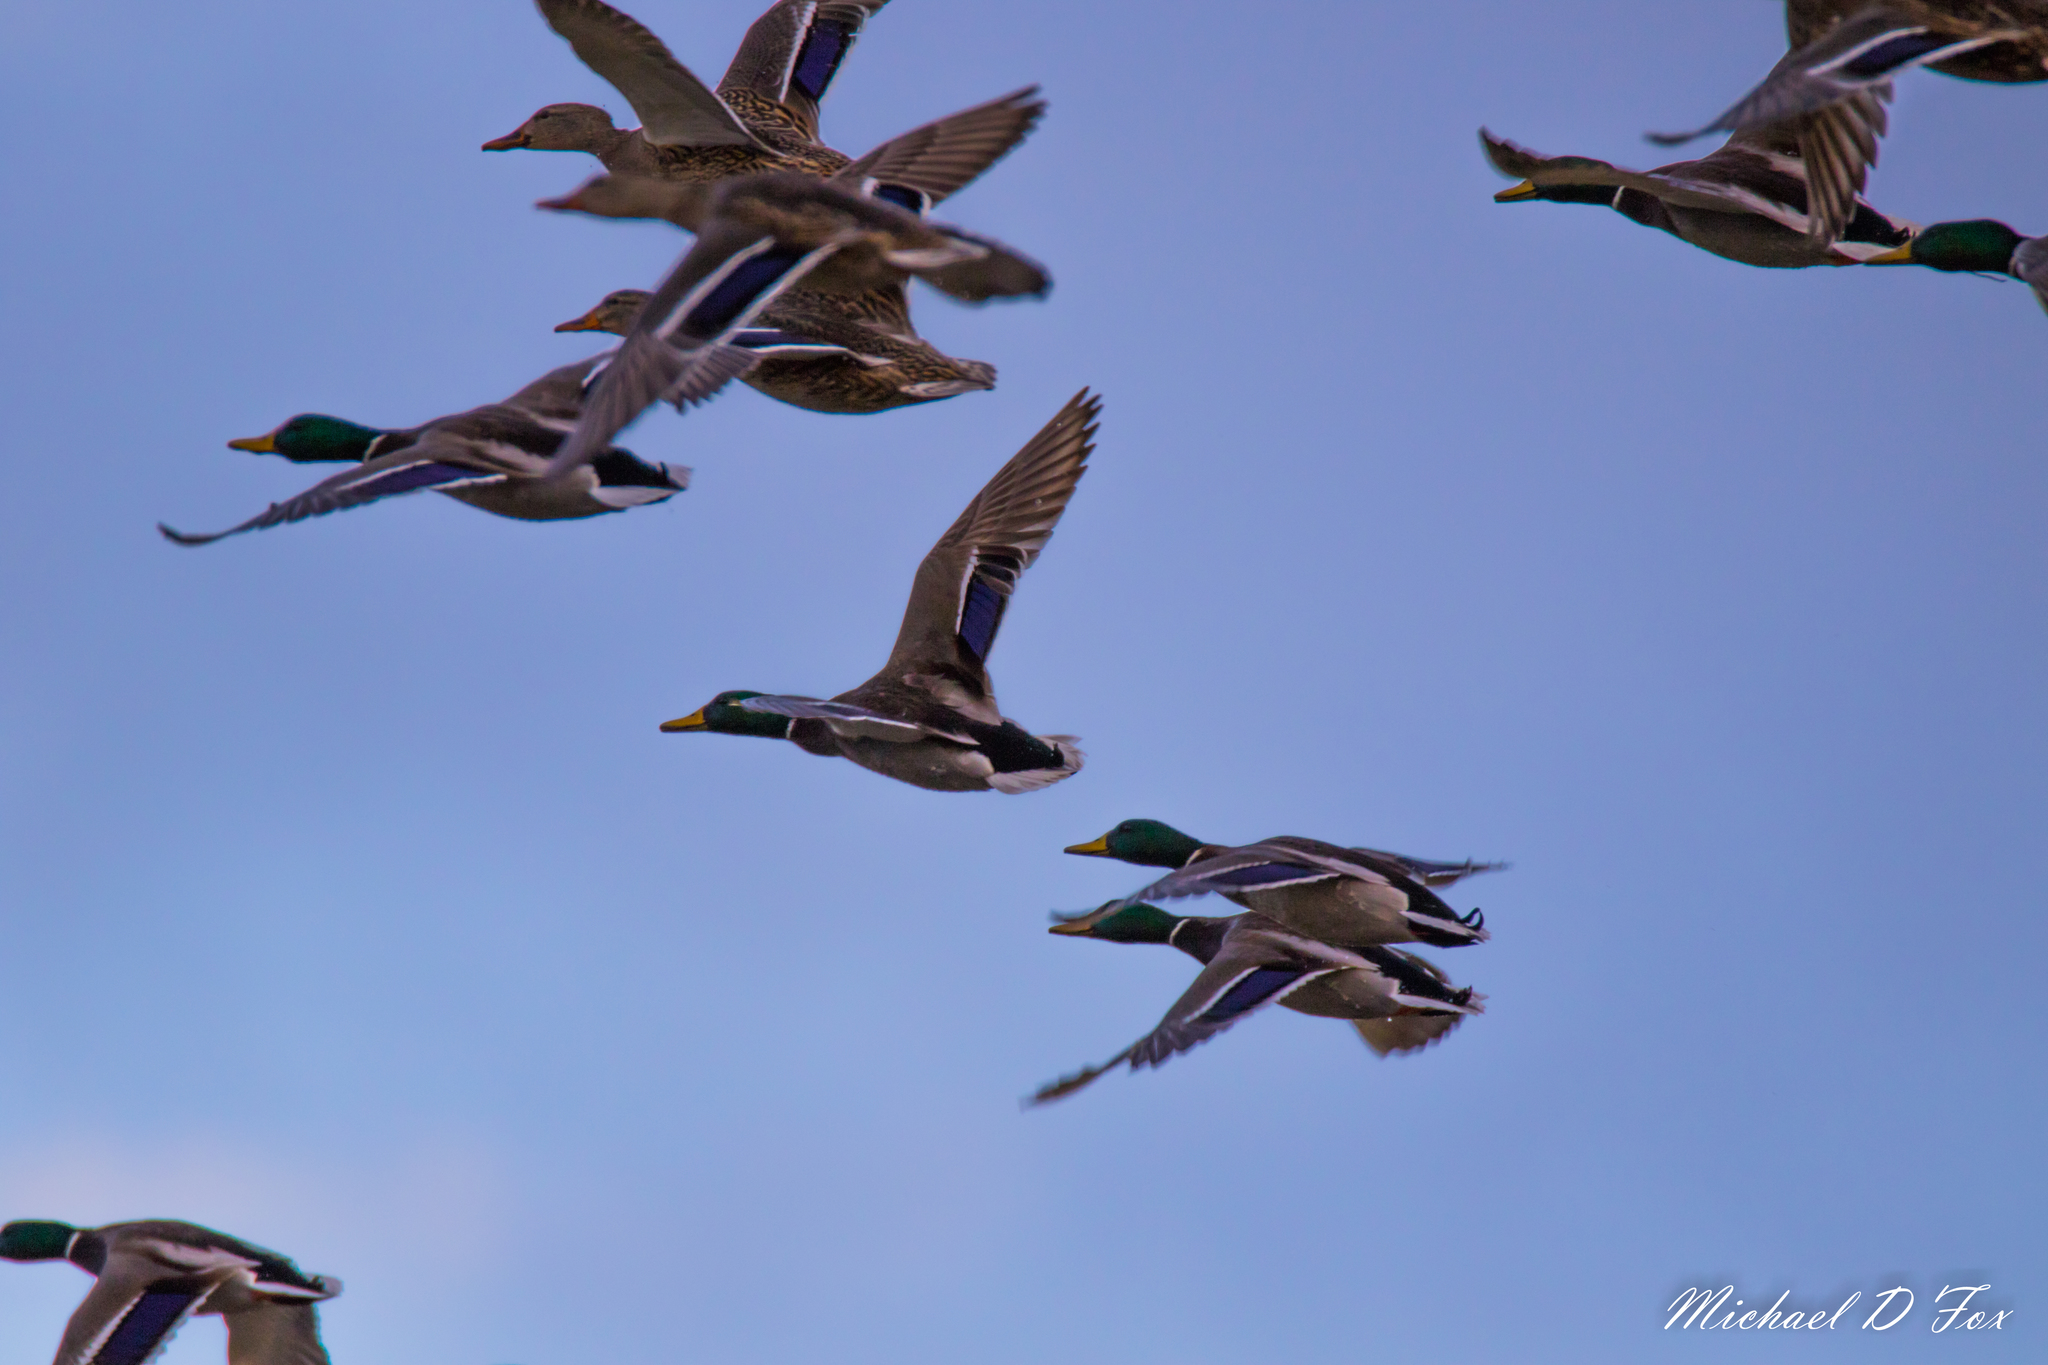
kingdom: Animalia
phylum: Chordata
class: Aves
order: Anseriformes
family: Anatidae
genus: Anas
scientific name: Anas platyrhynchos
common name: Mallard
